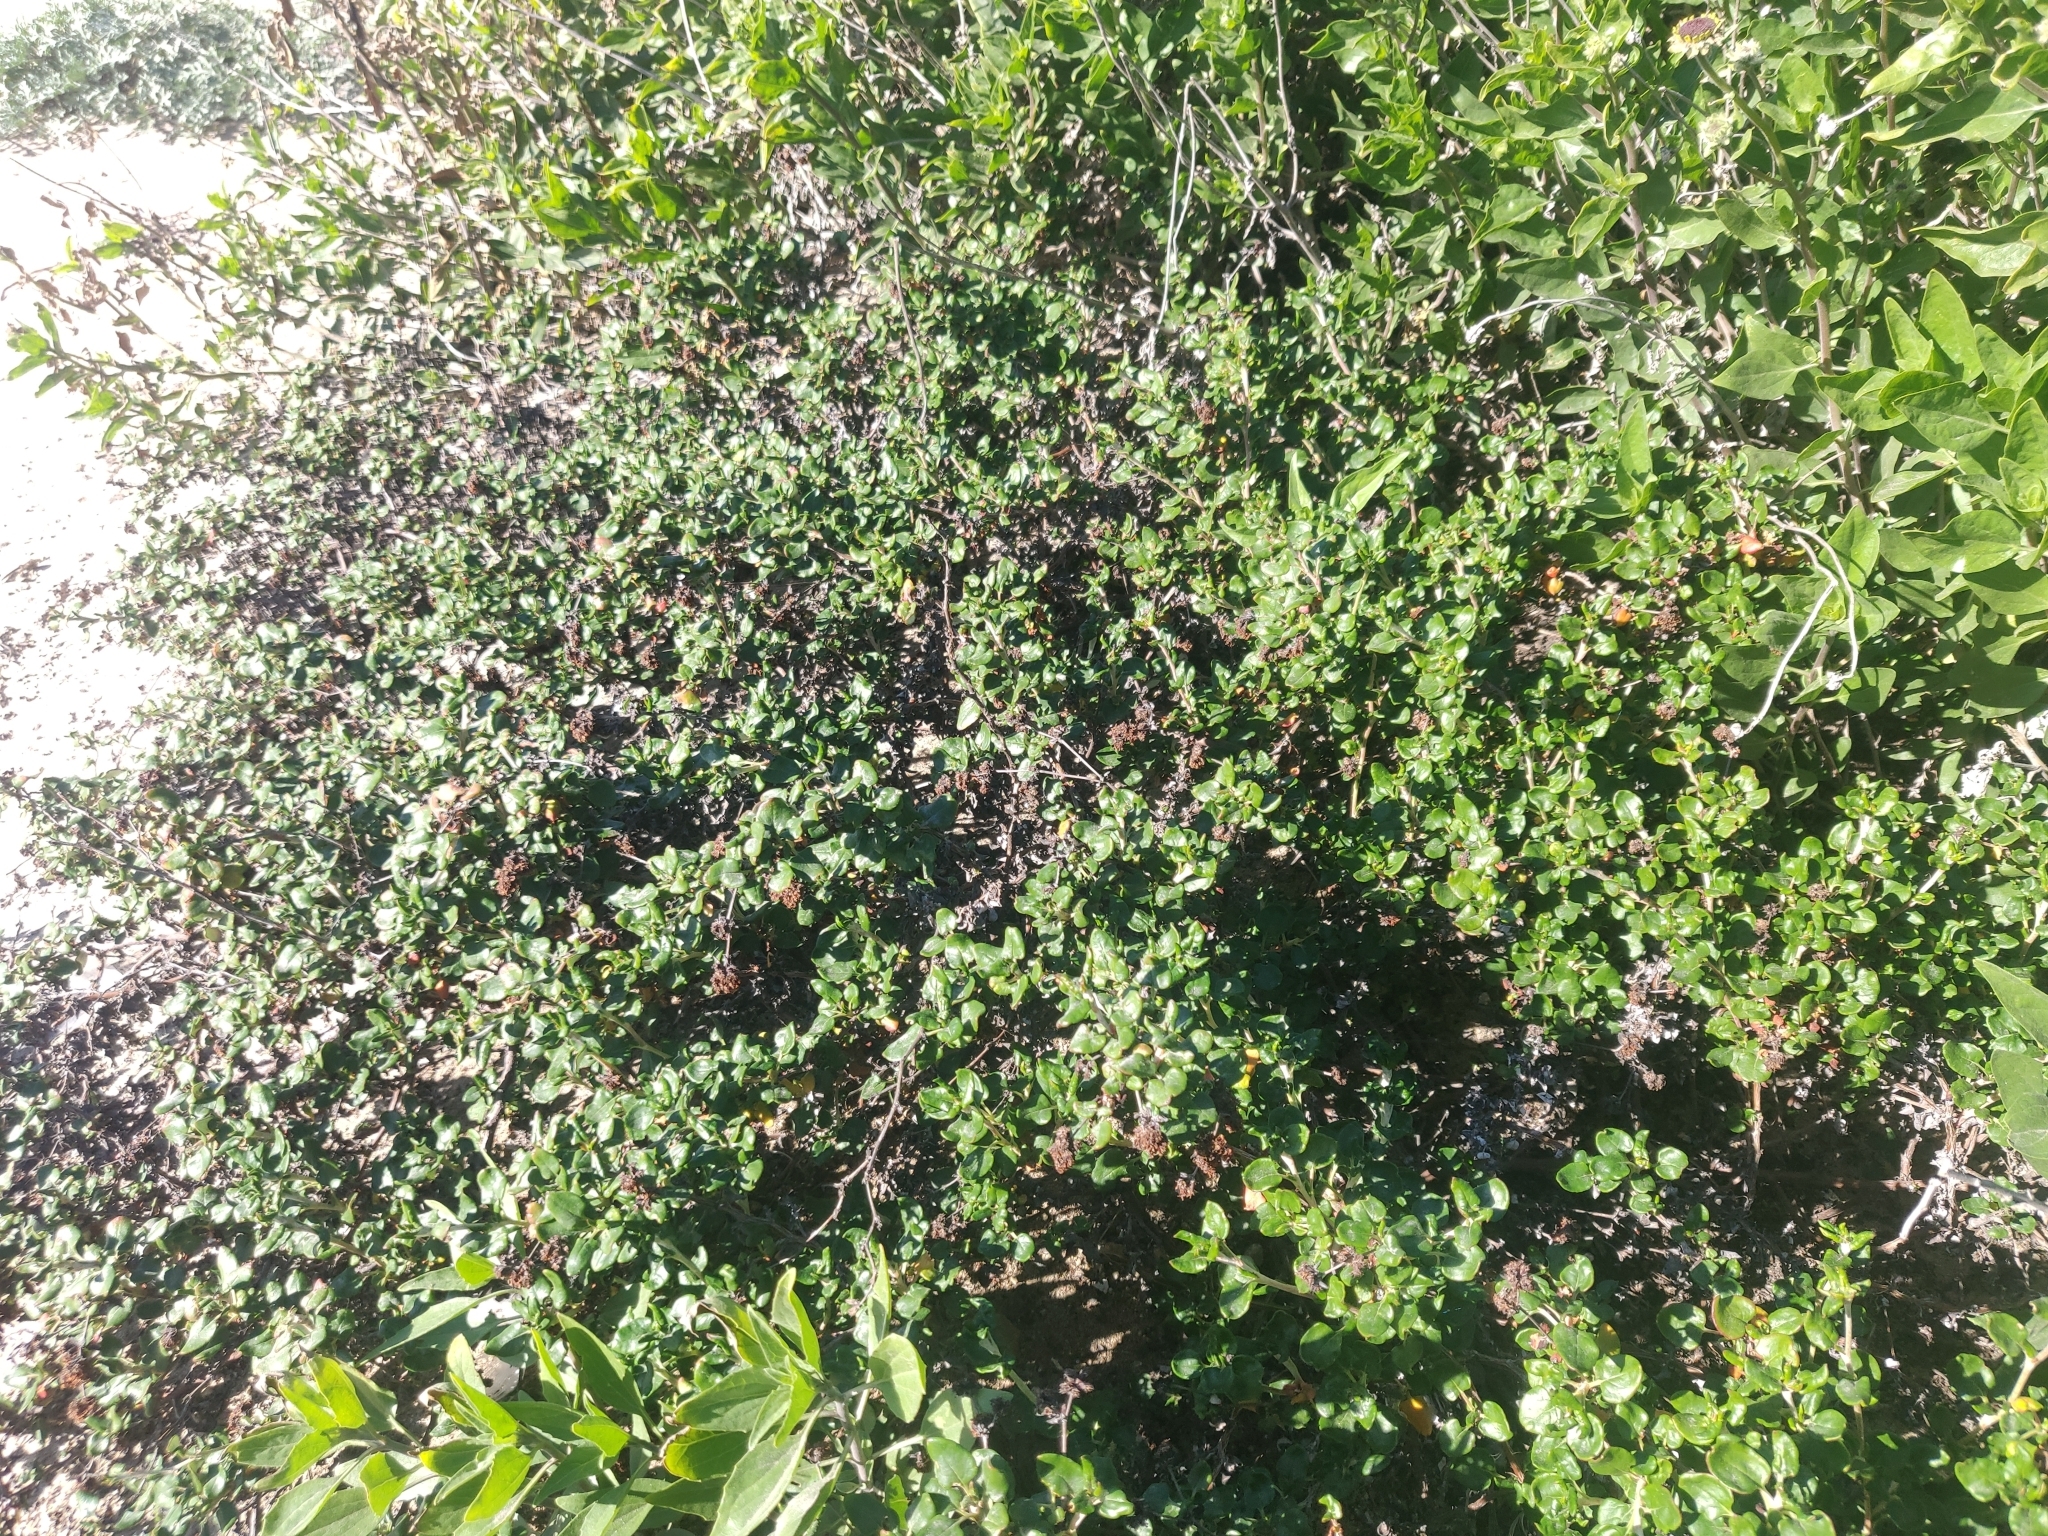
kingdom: Plantae
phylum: Tracheophyta
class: Magnoliopsida
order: Caryophyllales
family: Polygonaceae
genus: Eriogonum
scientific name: Eriogonum parvifolium
